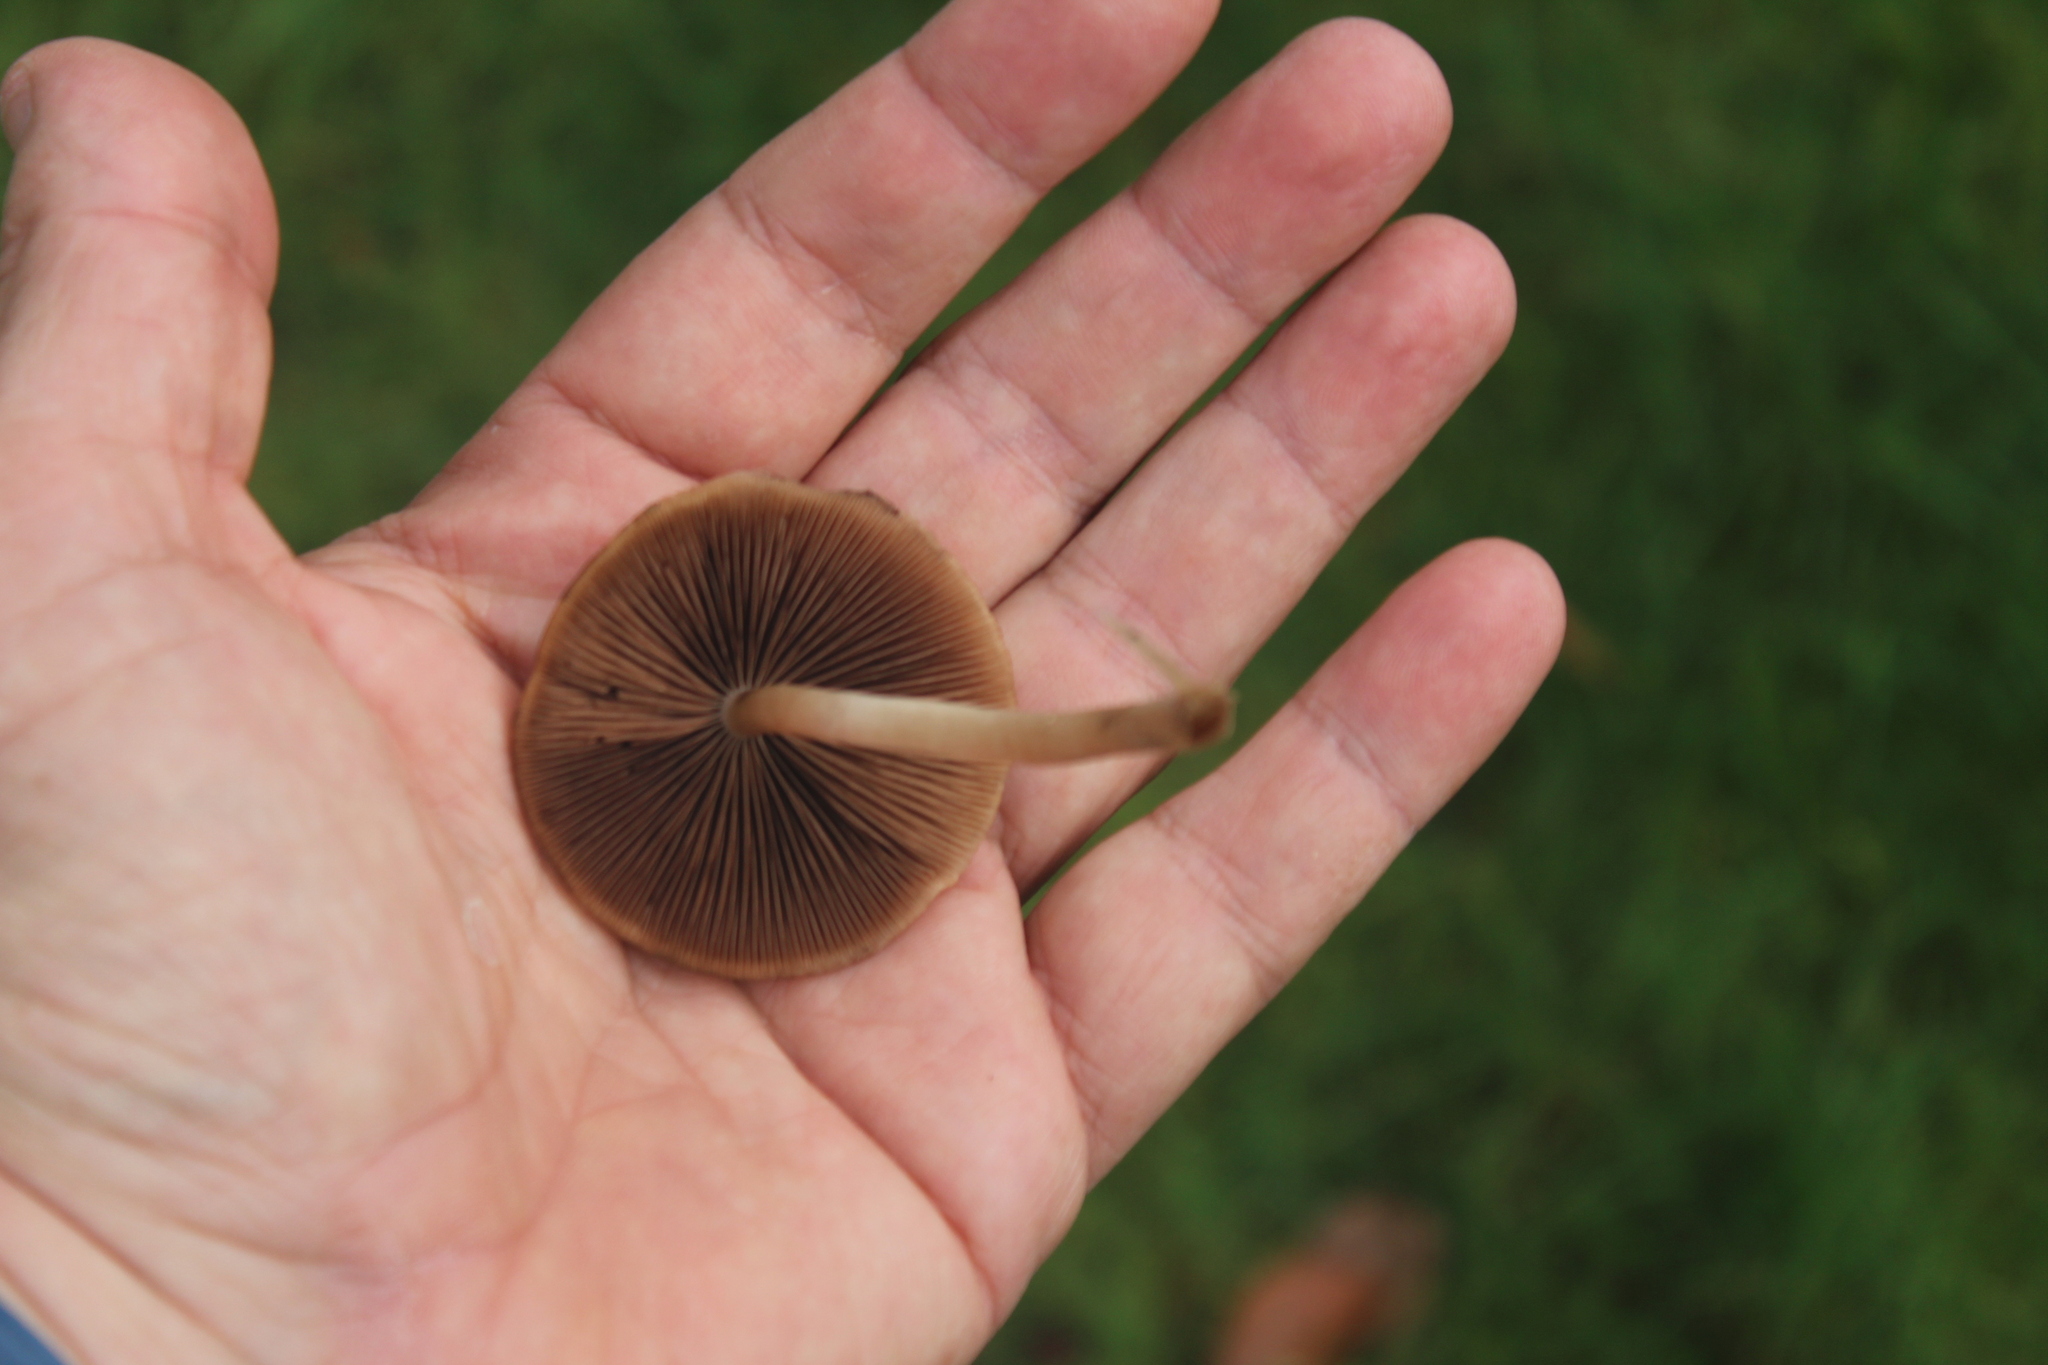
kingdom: Fungi
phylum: Basidiomycota
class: Agaricomycetes
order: Agaricales
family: Psathyrellaceae
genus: Psathyrella
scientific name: Psathyrella piluliformis
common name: Common stump brittlestem
